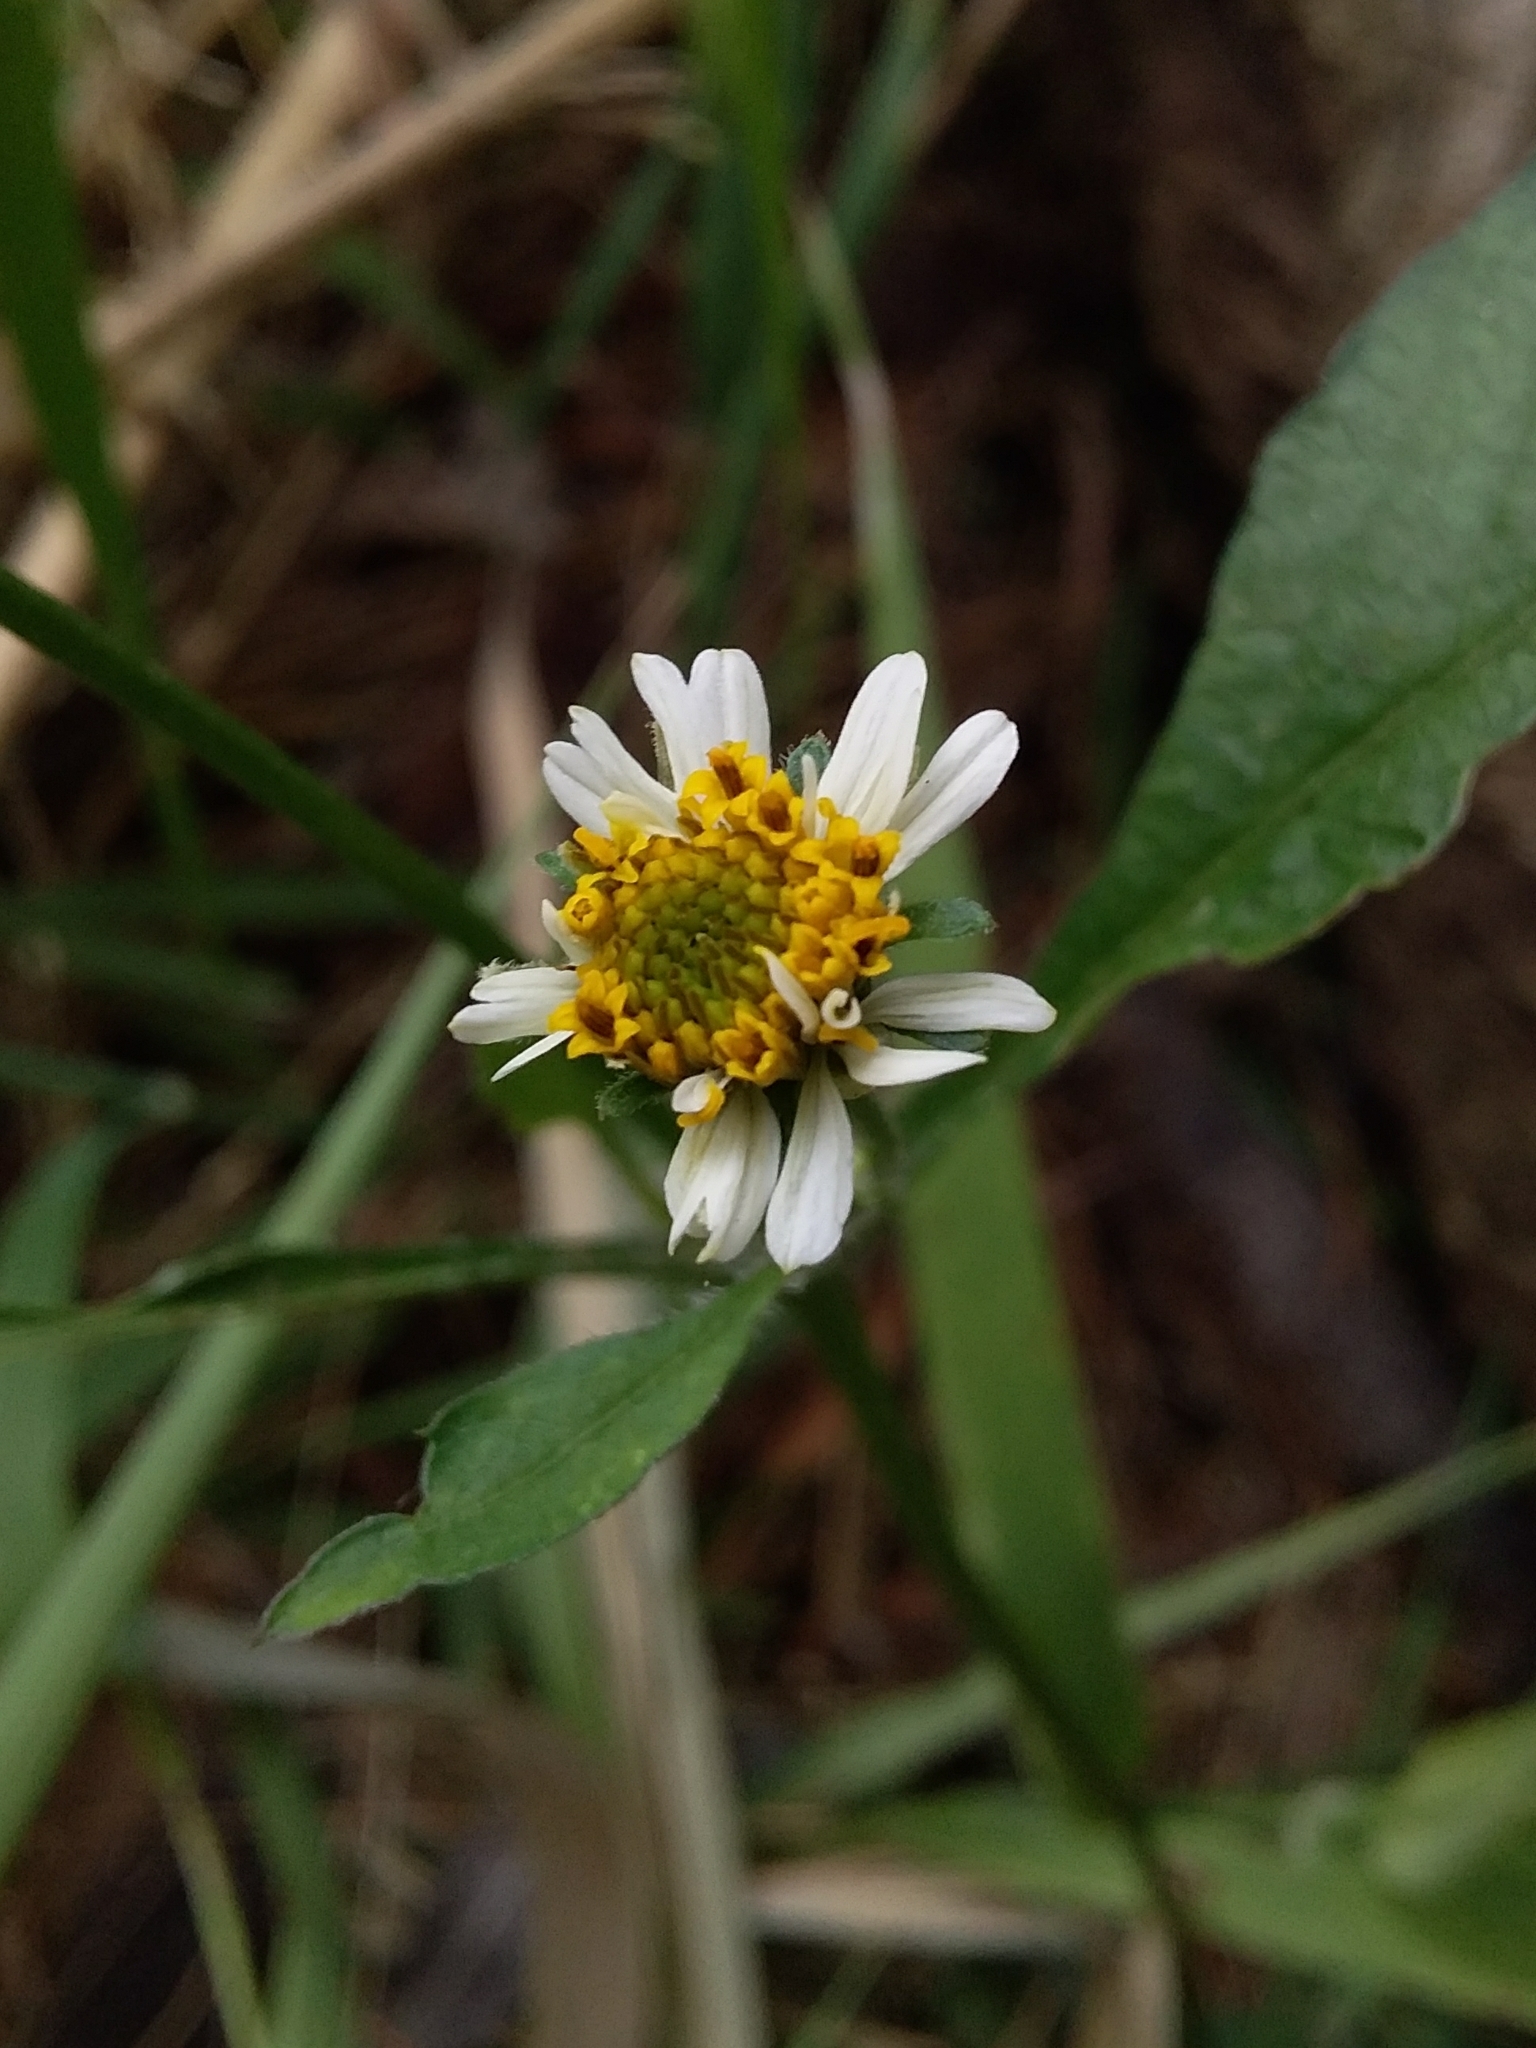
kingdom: Plantae
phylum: Tracheophyta
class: Magnoliopsida
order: Asterales
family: Asteraceae
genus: Bidens
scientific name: Bidens pilosa
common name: Black-jack
